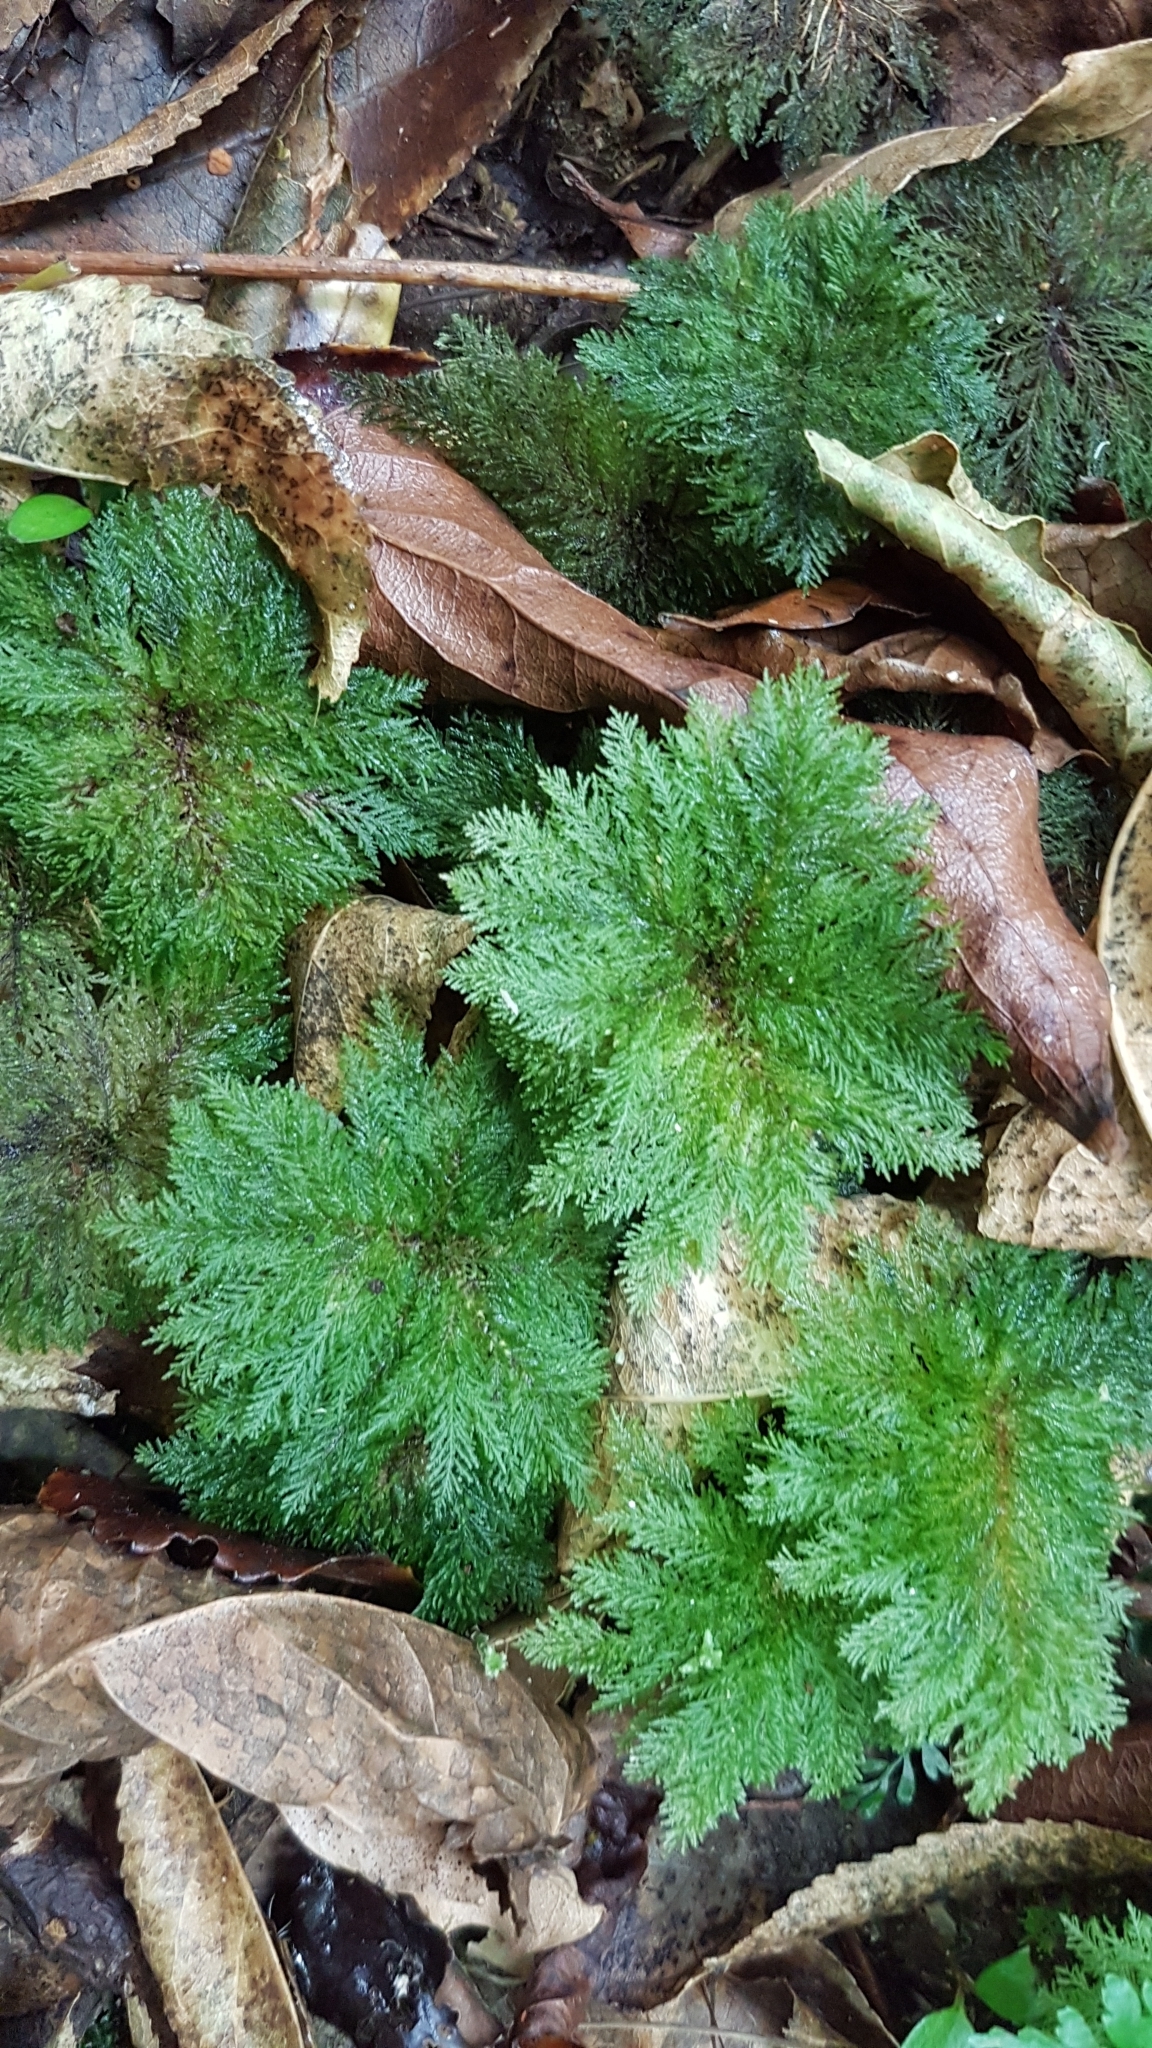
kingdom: Plantae
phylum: Bryophyta
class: Bryopsida
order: Hypopterygiales
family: Hypopterygiaceae
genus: Dendrohypopterygium
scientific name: Dendrohypopterygium filiculiforme
